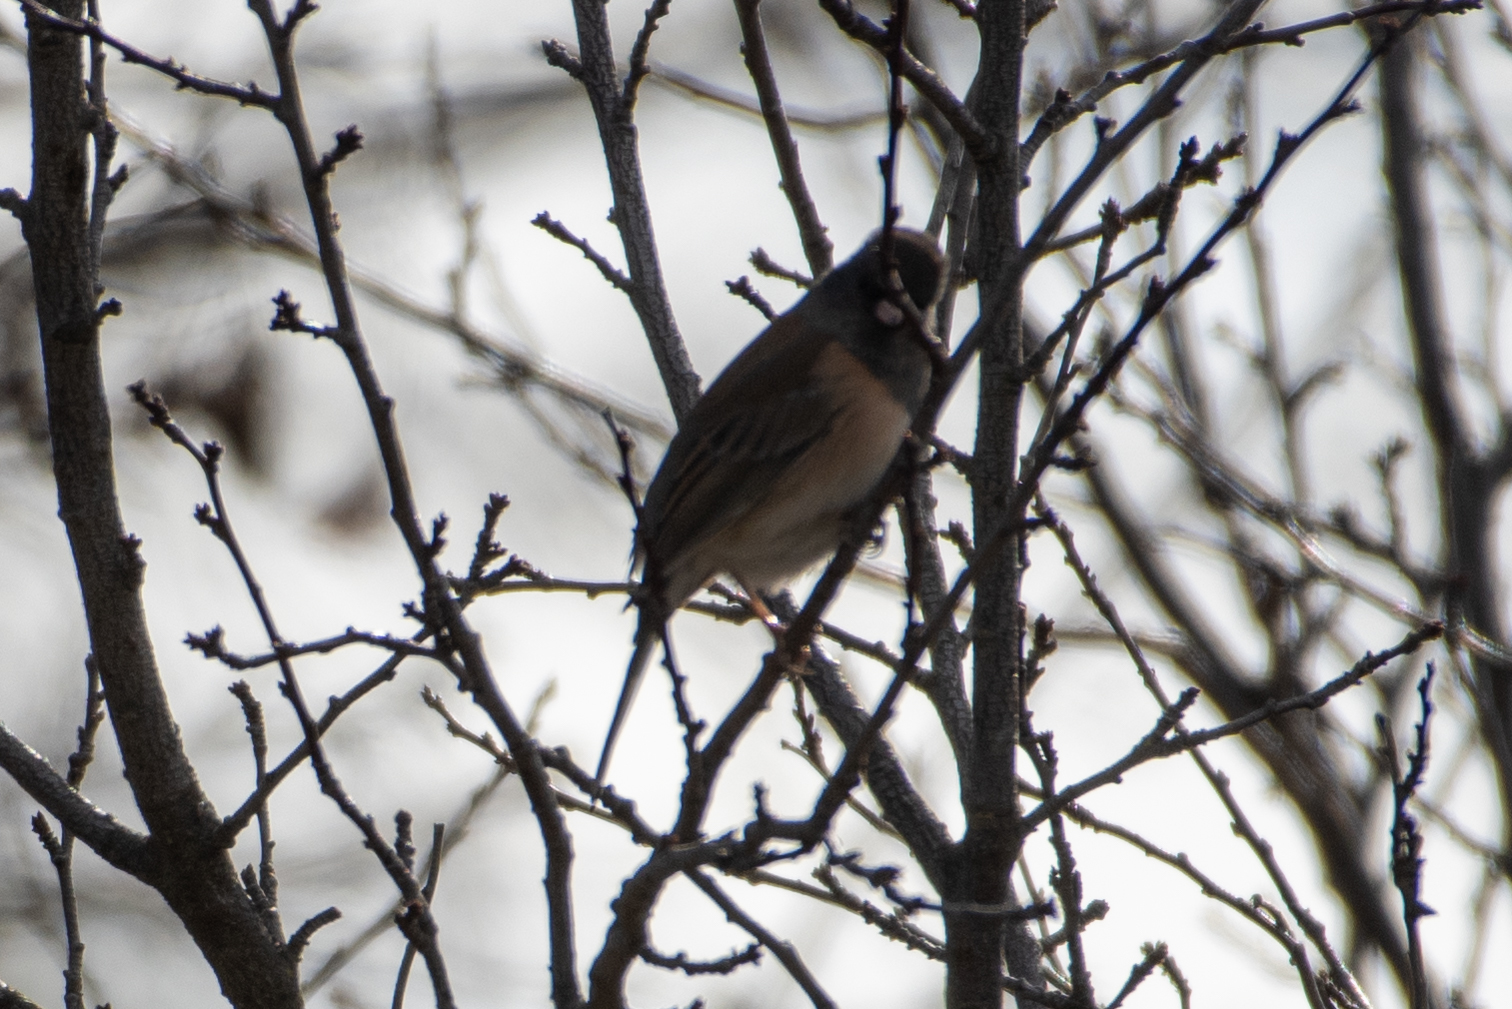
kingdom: Animalia
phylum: Chordata
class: Aves
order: Passeriformes
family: Passerellidae
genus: Junco
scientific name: Junco hyemalis
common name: Dark-eyed junco
